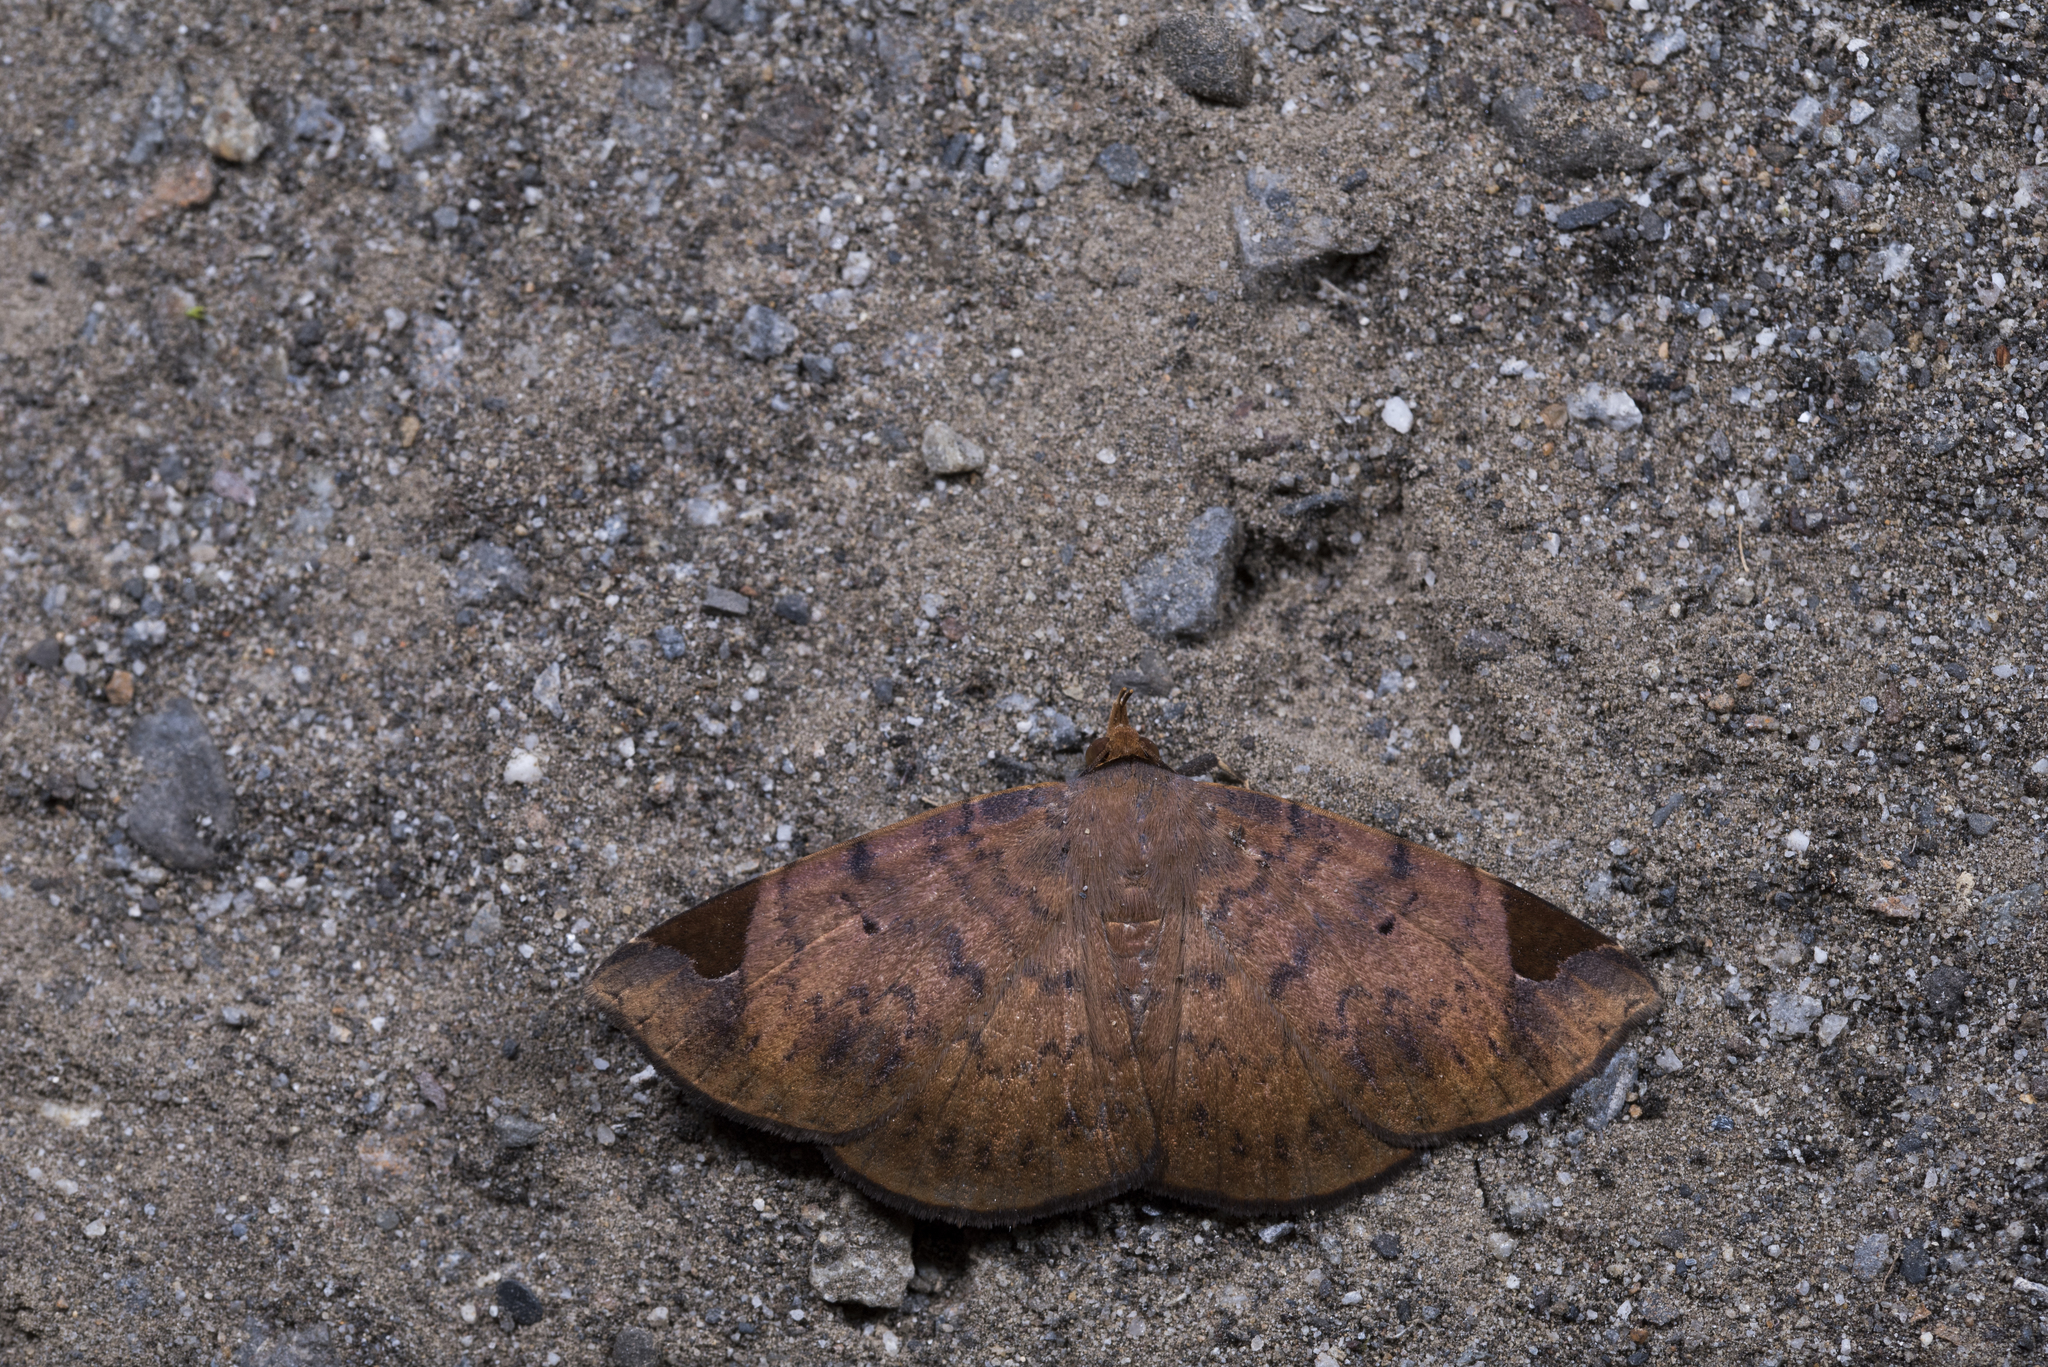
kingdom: Animalia
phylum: Arthropoda
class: Insecta
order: Lepidoptera
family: Erebidae
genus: Mecodina
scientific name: Mecodina praecipua
